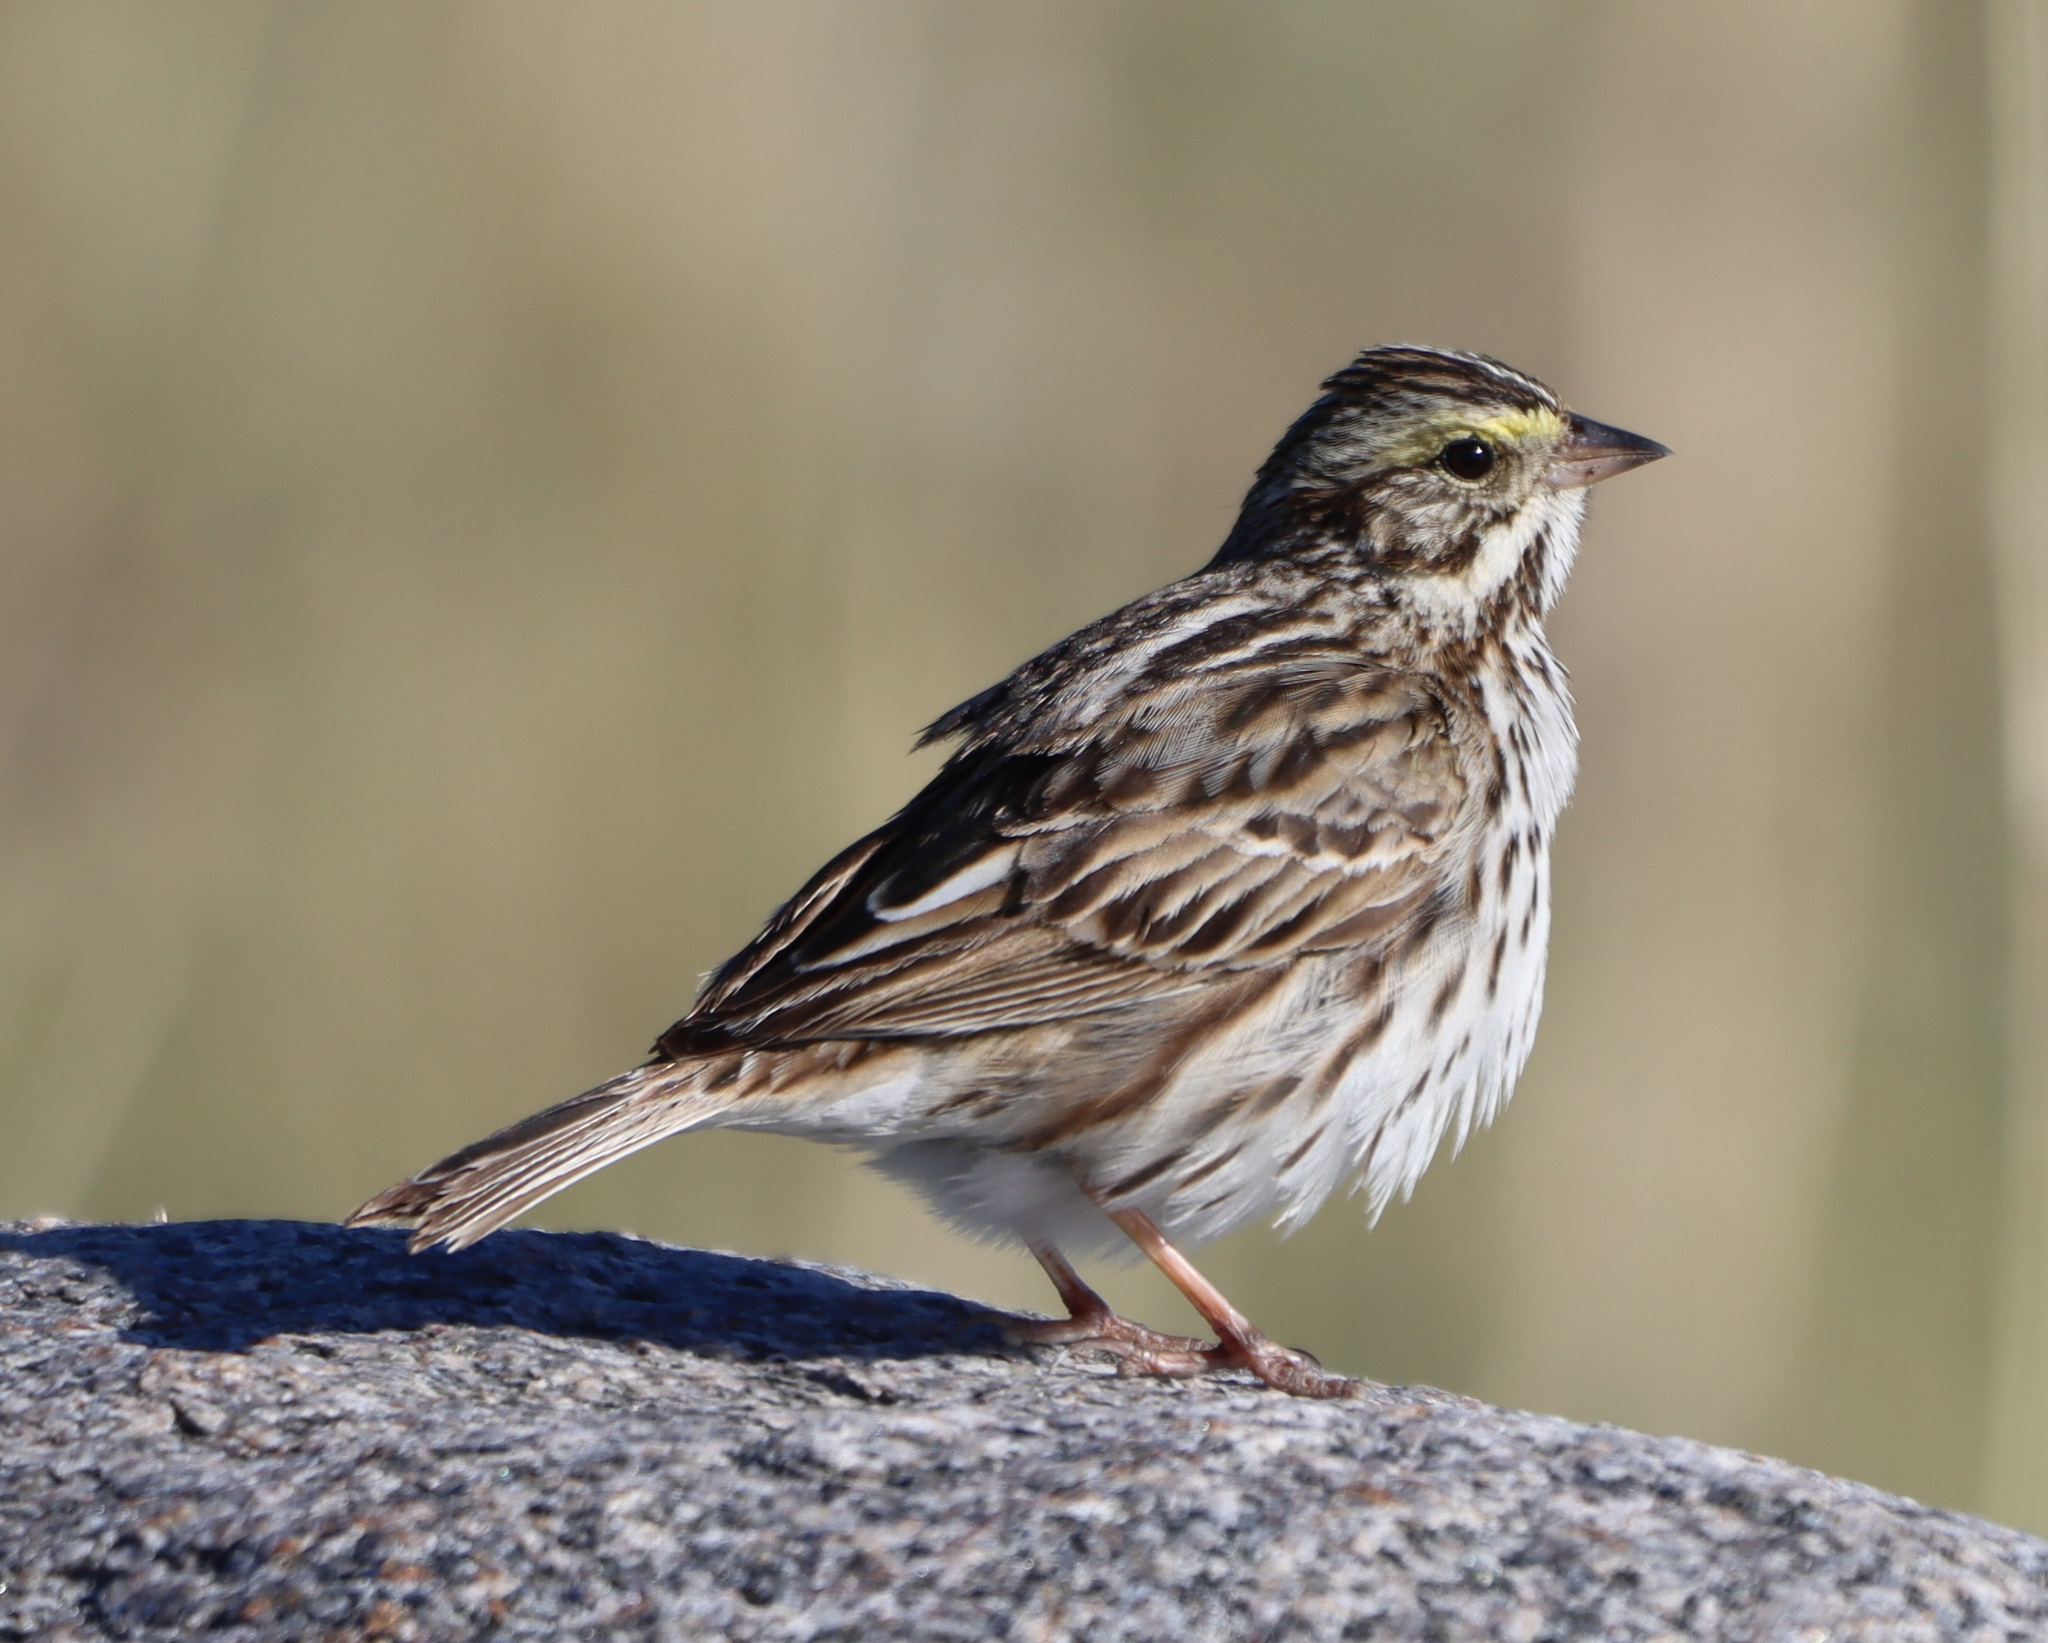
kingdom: Animalia
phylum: Chordata
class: Aves
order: Passeriformes
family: Passerellidae
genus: Passerculus
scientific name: Passerculus sandwichensis
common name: Savannah sparrow
